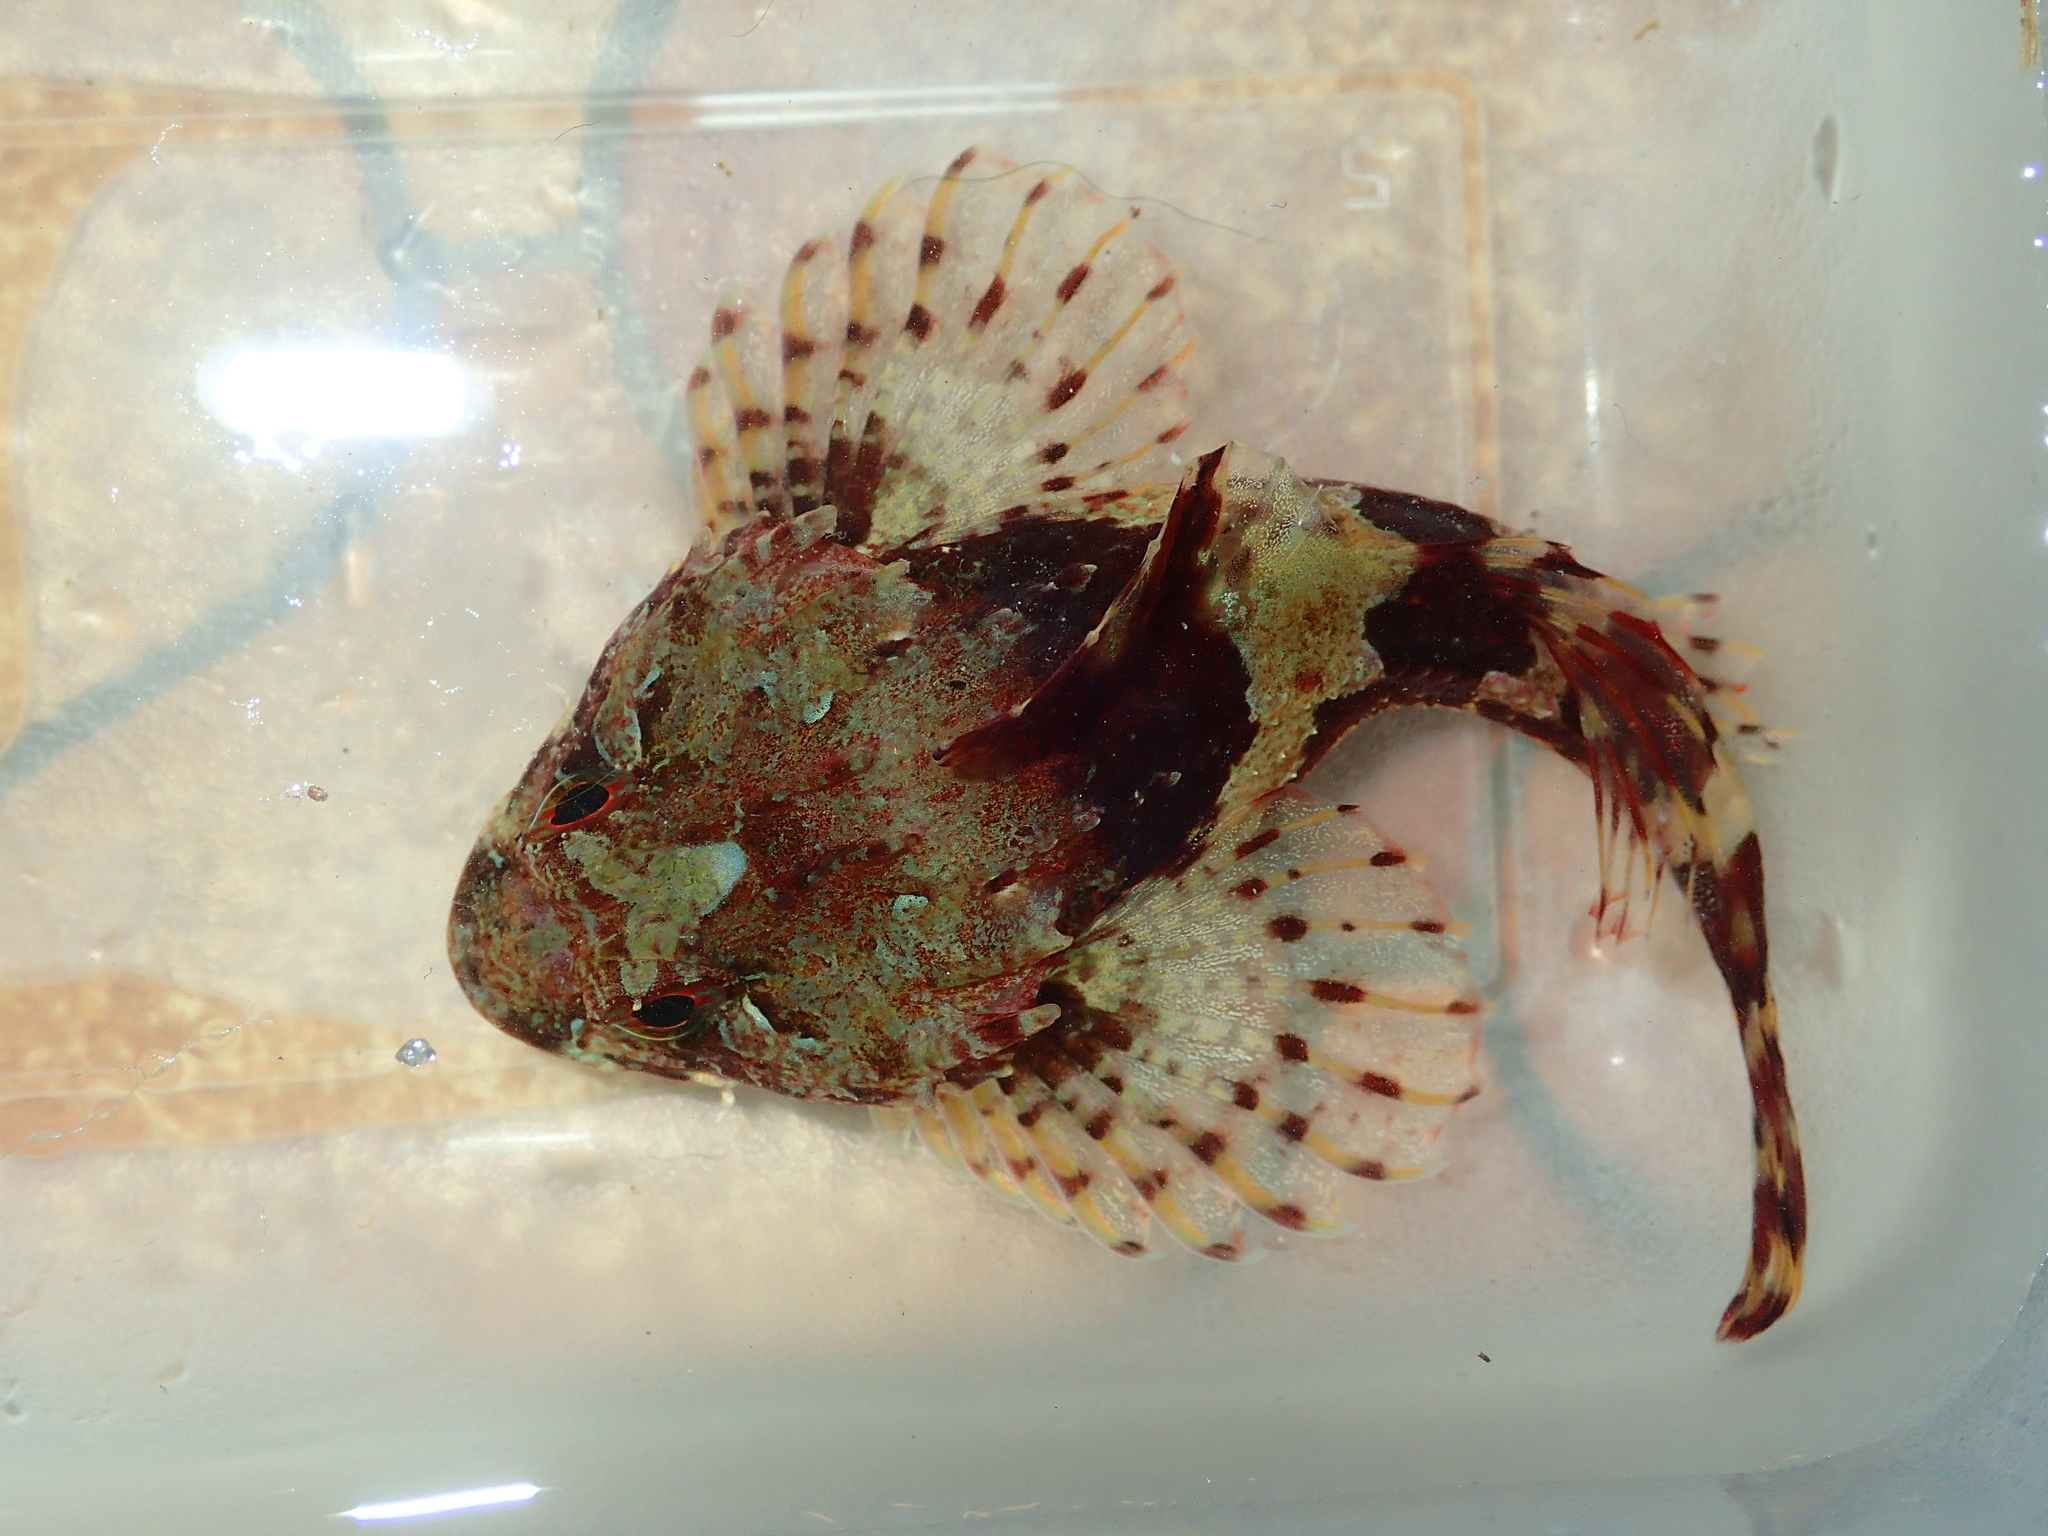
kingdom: Animalia
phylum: Chordata
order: Scorpaeniformes
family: Cottidae
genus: Taurulus
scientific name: Taurulus bubalis
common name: Sea scorpion
